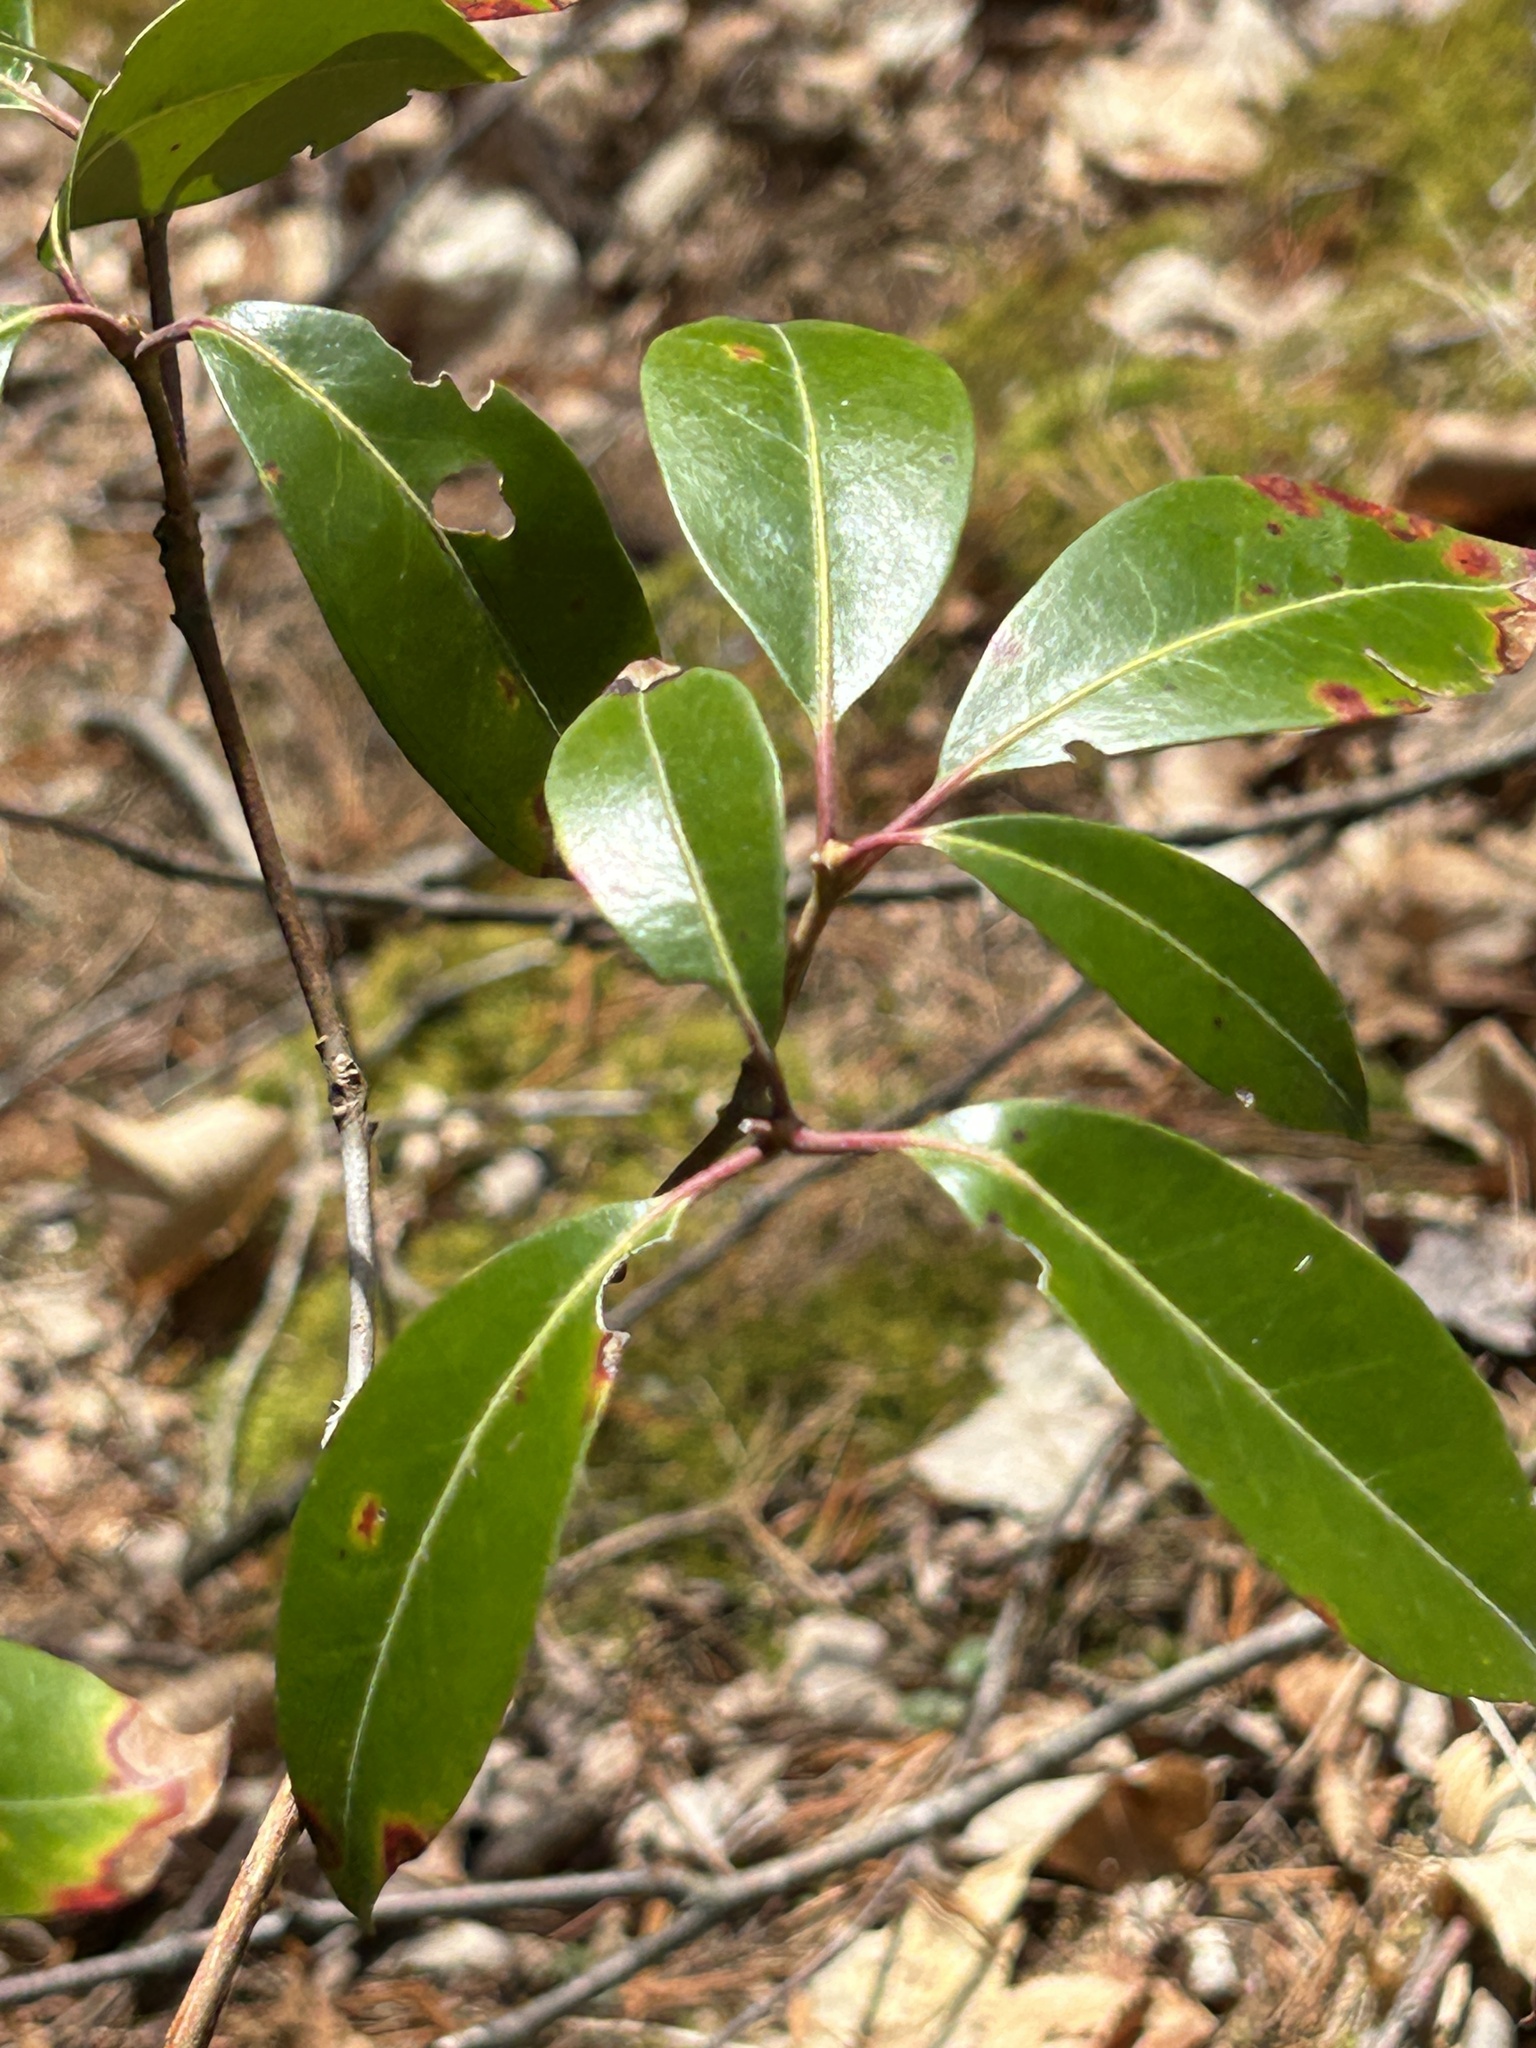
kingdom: Plantae
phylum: Tracheophyta
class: Magnoliopsida
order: Ericales
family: Ericaceae
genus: Kalmia
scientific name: Kalmia latifolia
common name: Mountain-laurel
